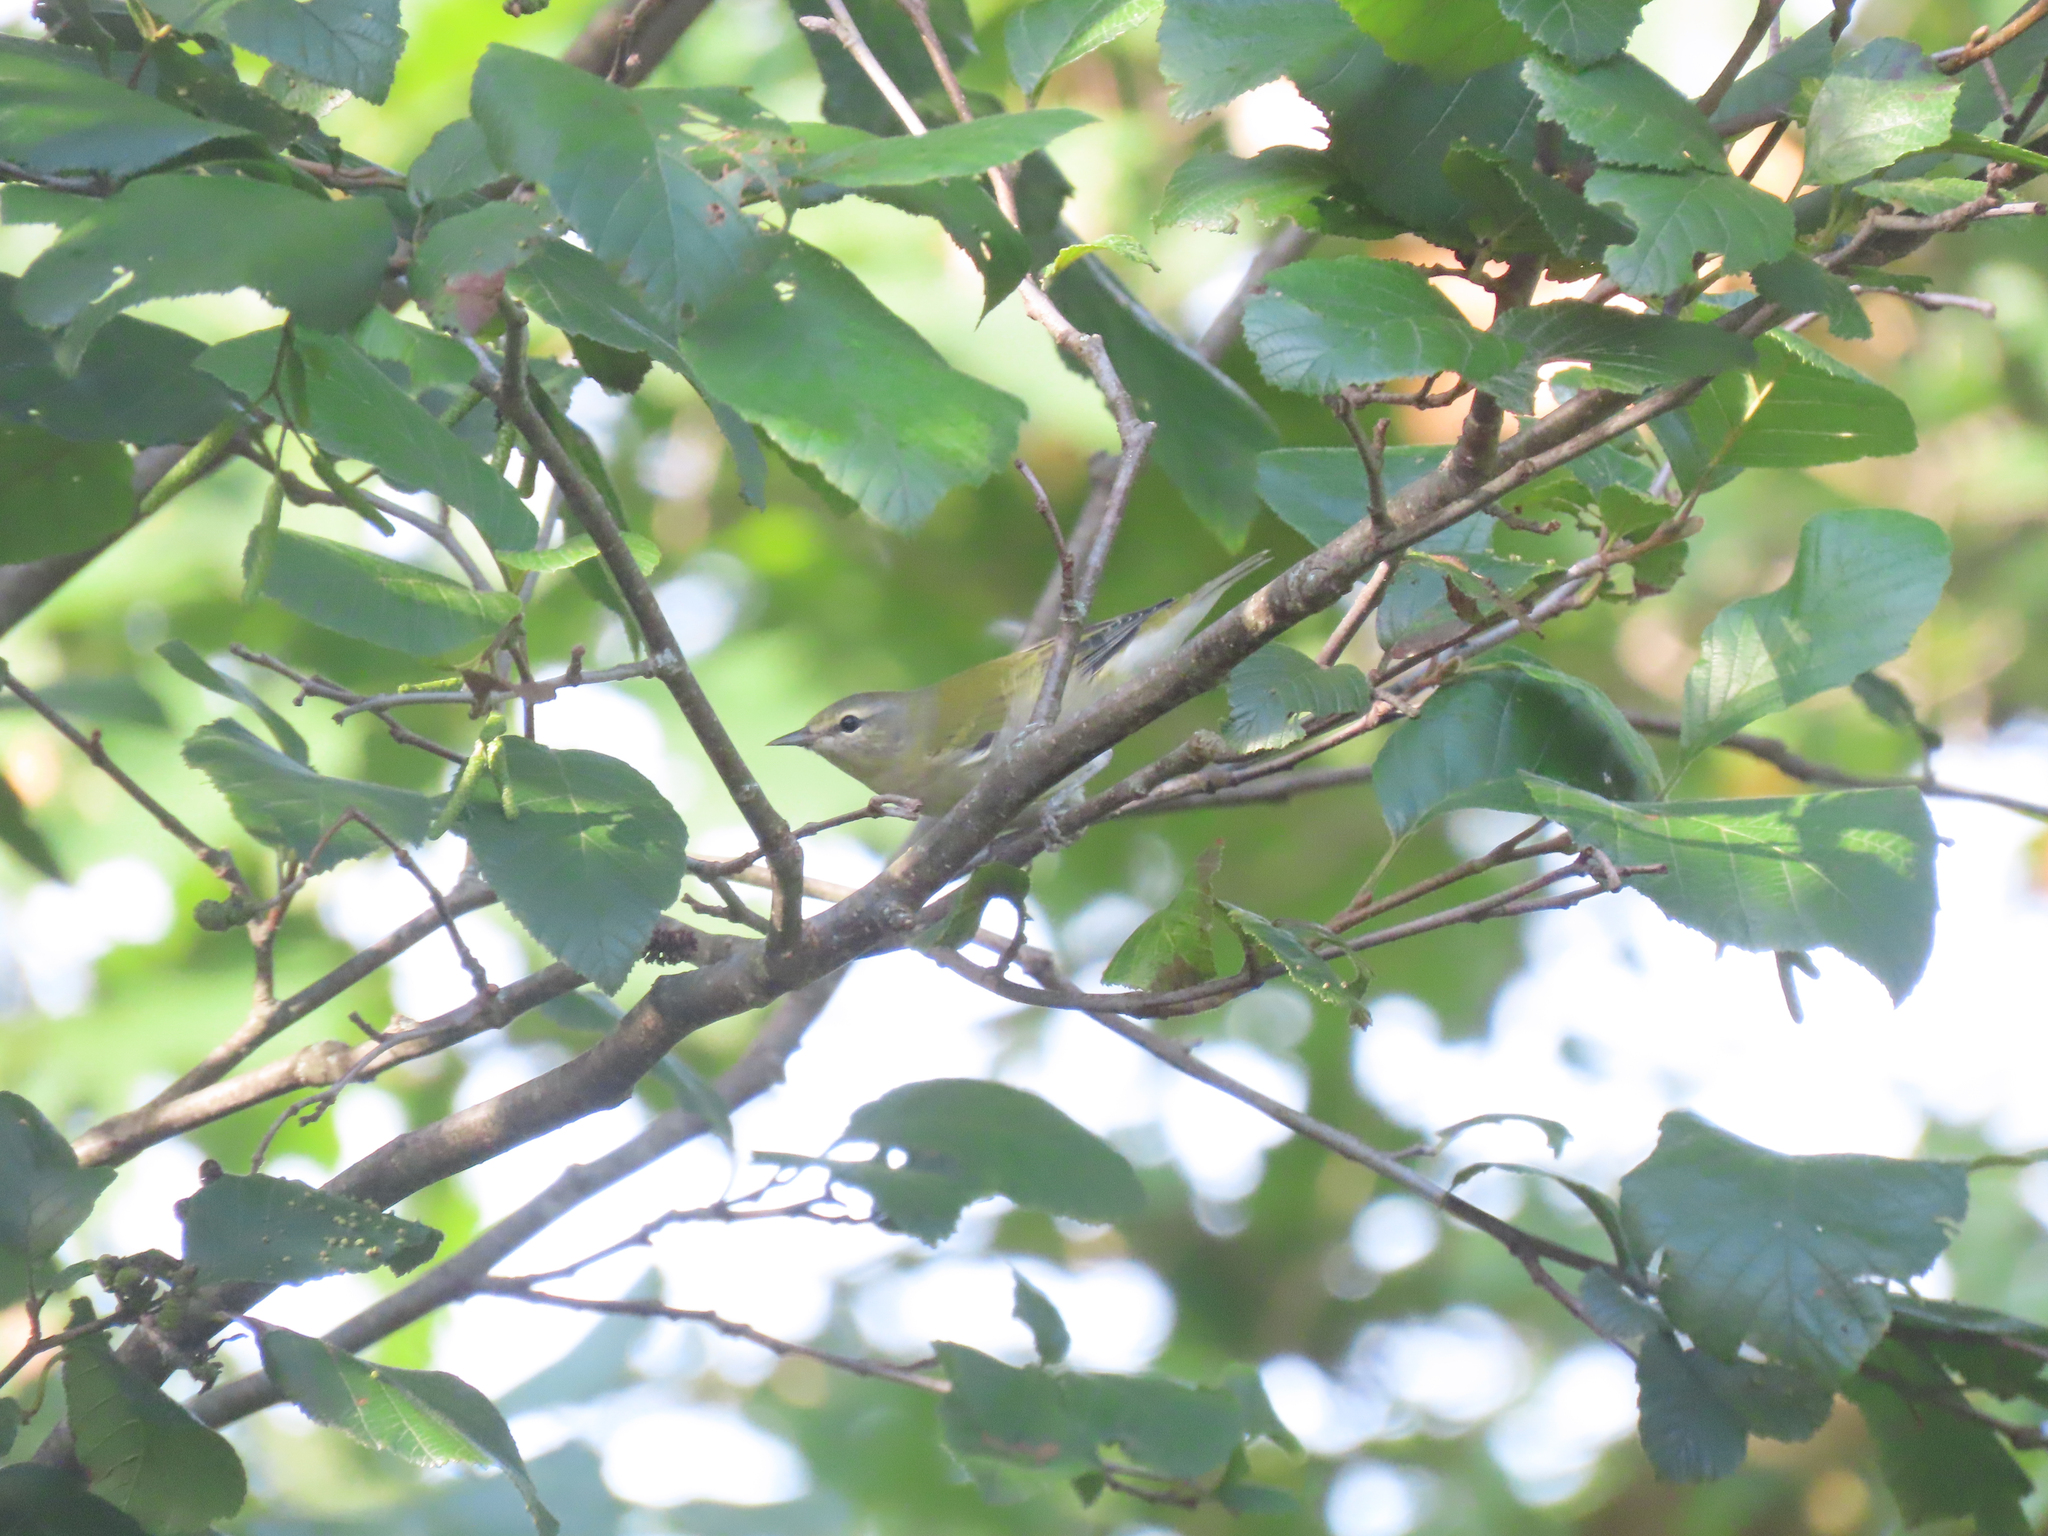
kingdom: Animalia
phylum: Chordata
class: Aves
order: Passeriformes
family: Parulidae
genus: Leiothlypis
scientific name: Leiothlypis peregrina
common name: Tennessee warbler
